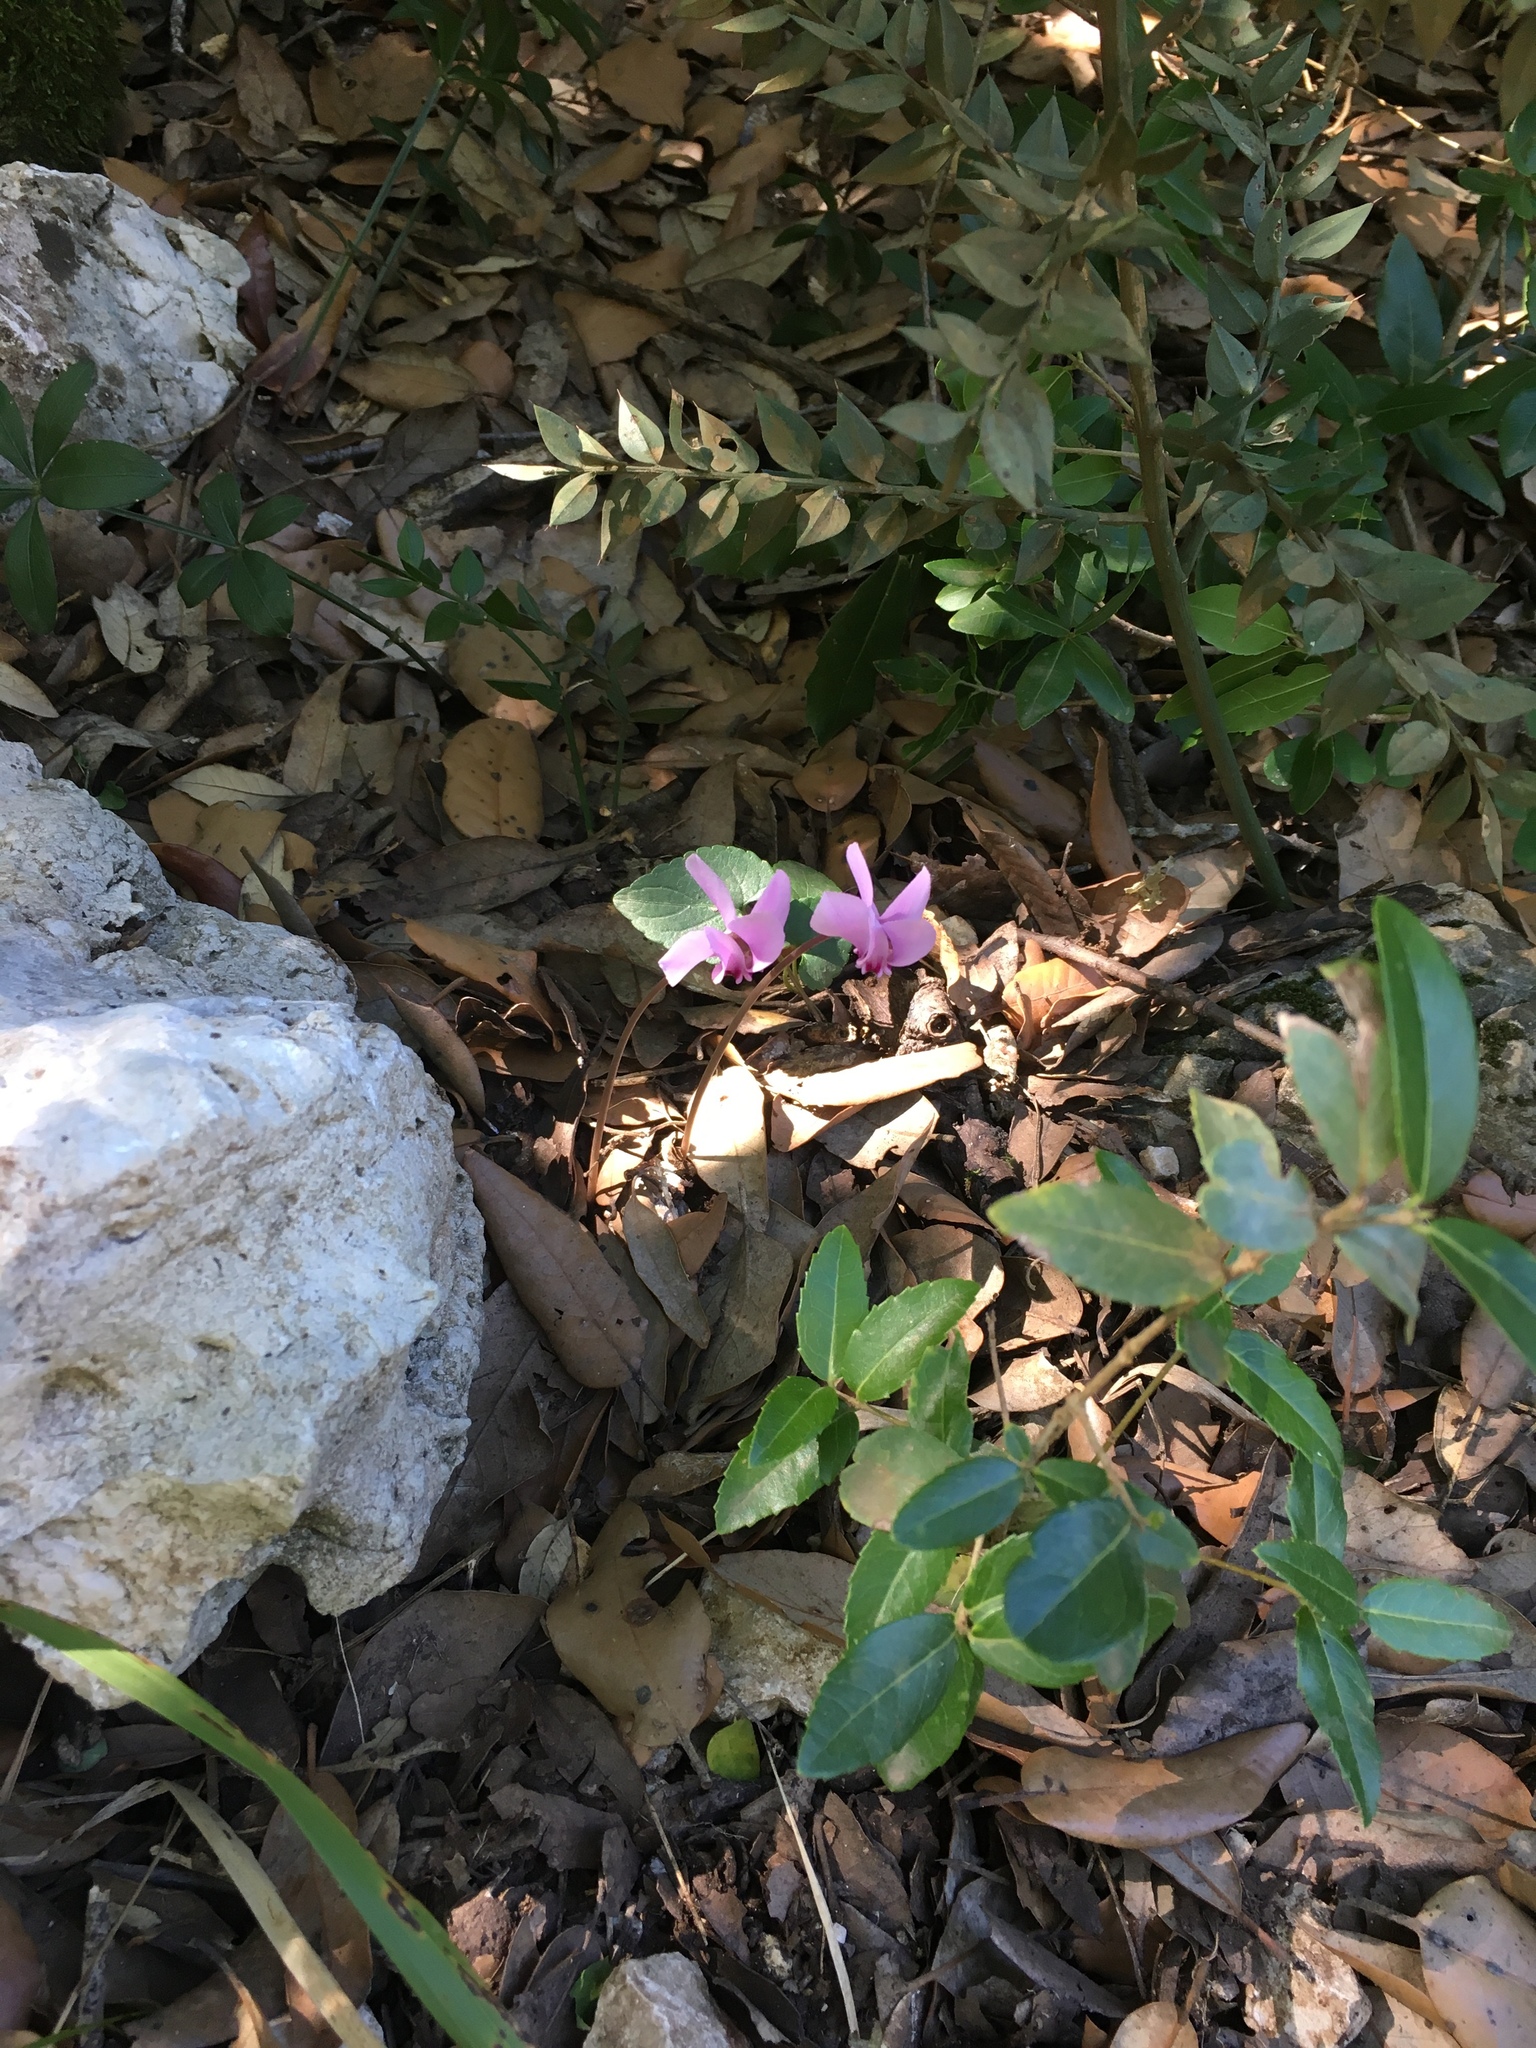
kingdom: Plantae
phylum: Tracheophyta
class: Magnoliopsida
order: Ericales
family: Primulaceae
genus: Cyclamen
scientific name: Cyclamen hederifolium
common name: Sowbread
